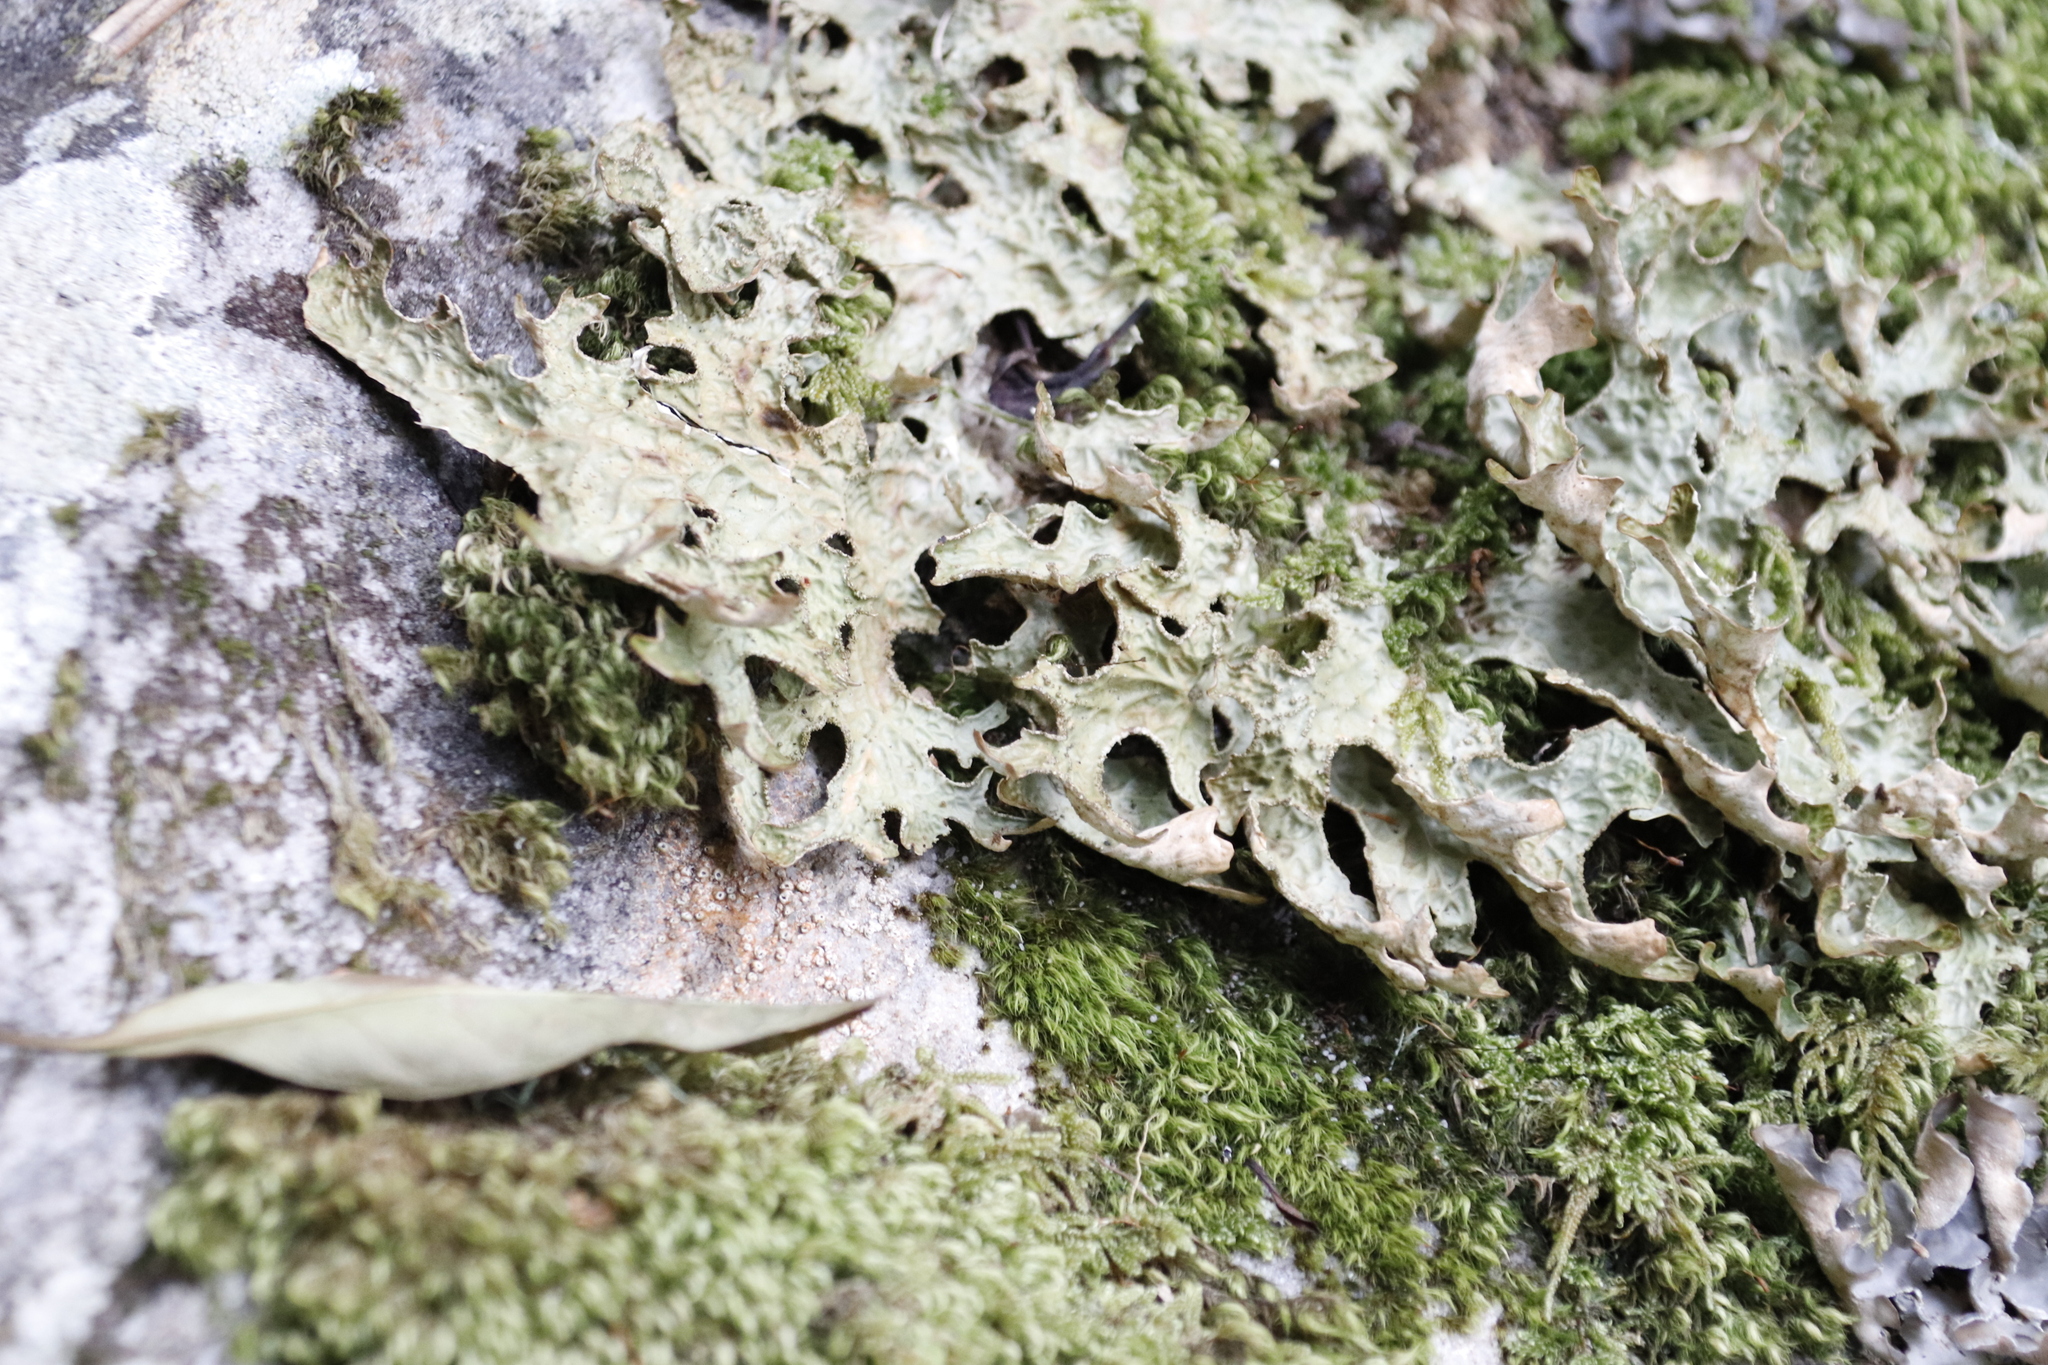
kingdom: Fungi
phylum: Ascomycota
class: Lecanoromycetes
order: Peltigerales
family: Lobariaceae
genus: Lobaria
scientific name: Lobaria pulmonaria
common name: Lungwort
